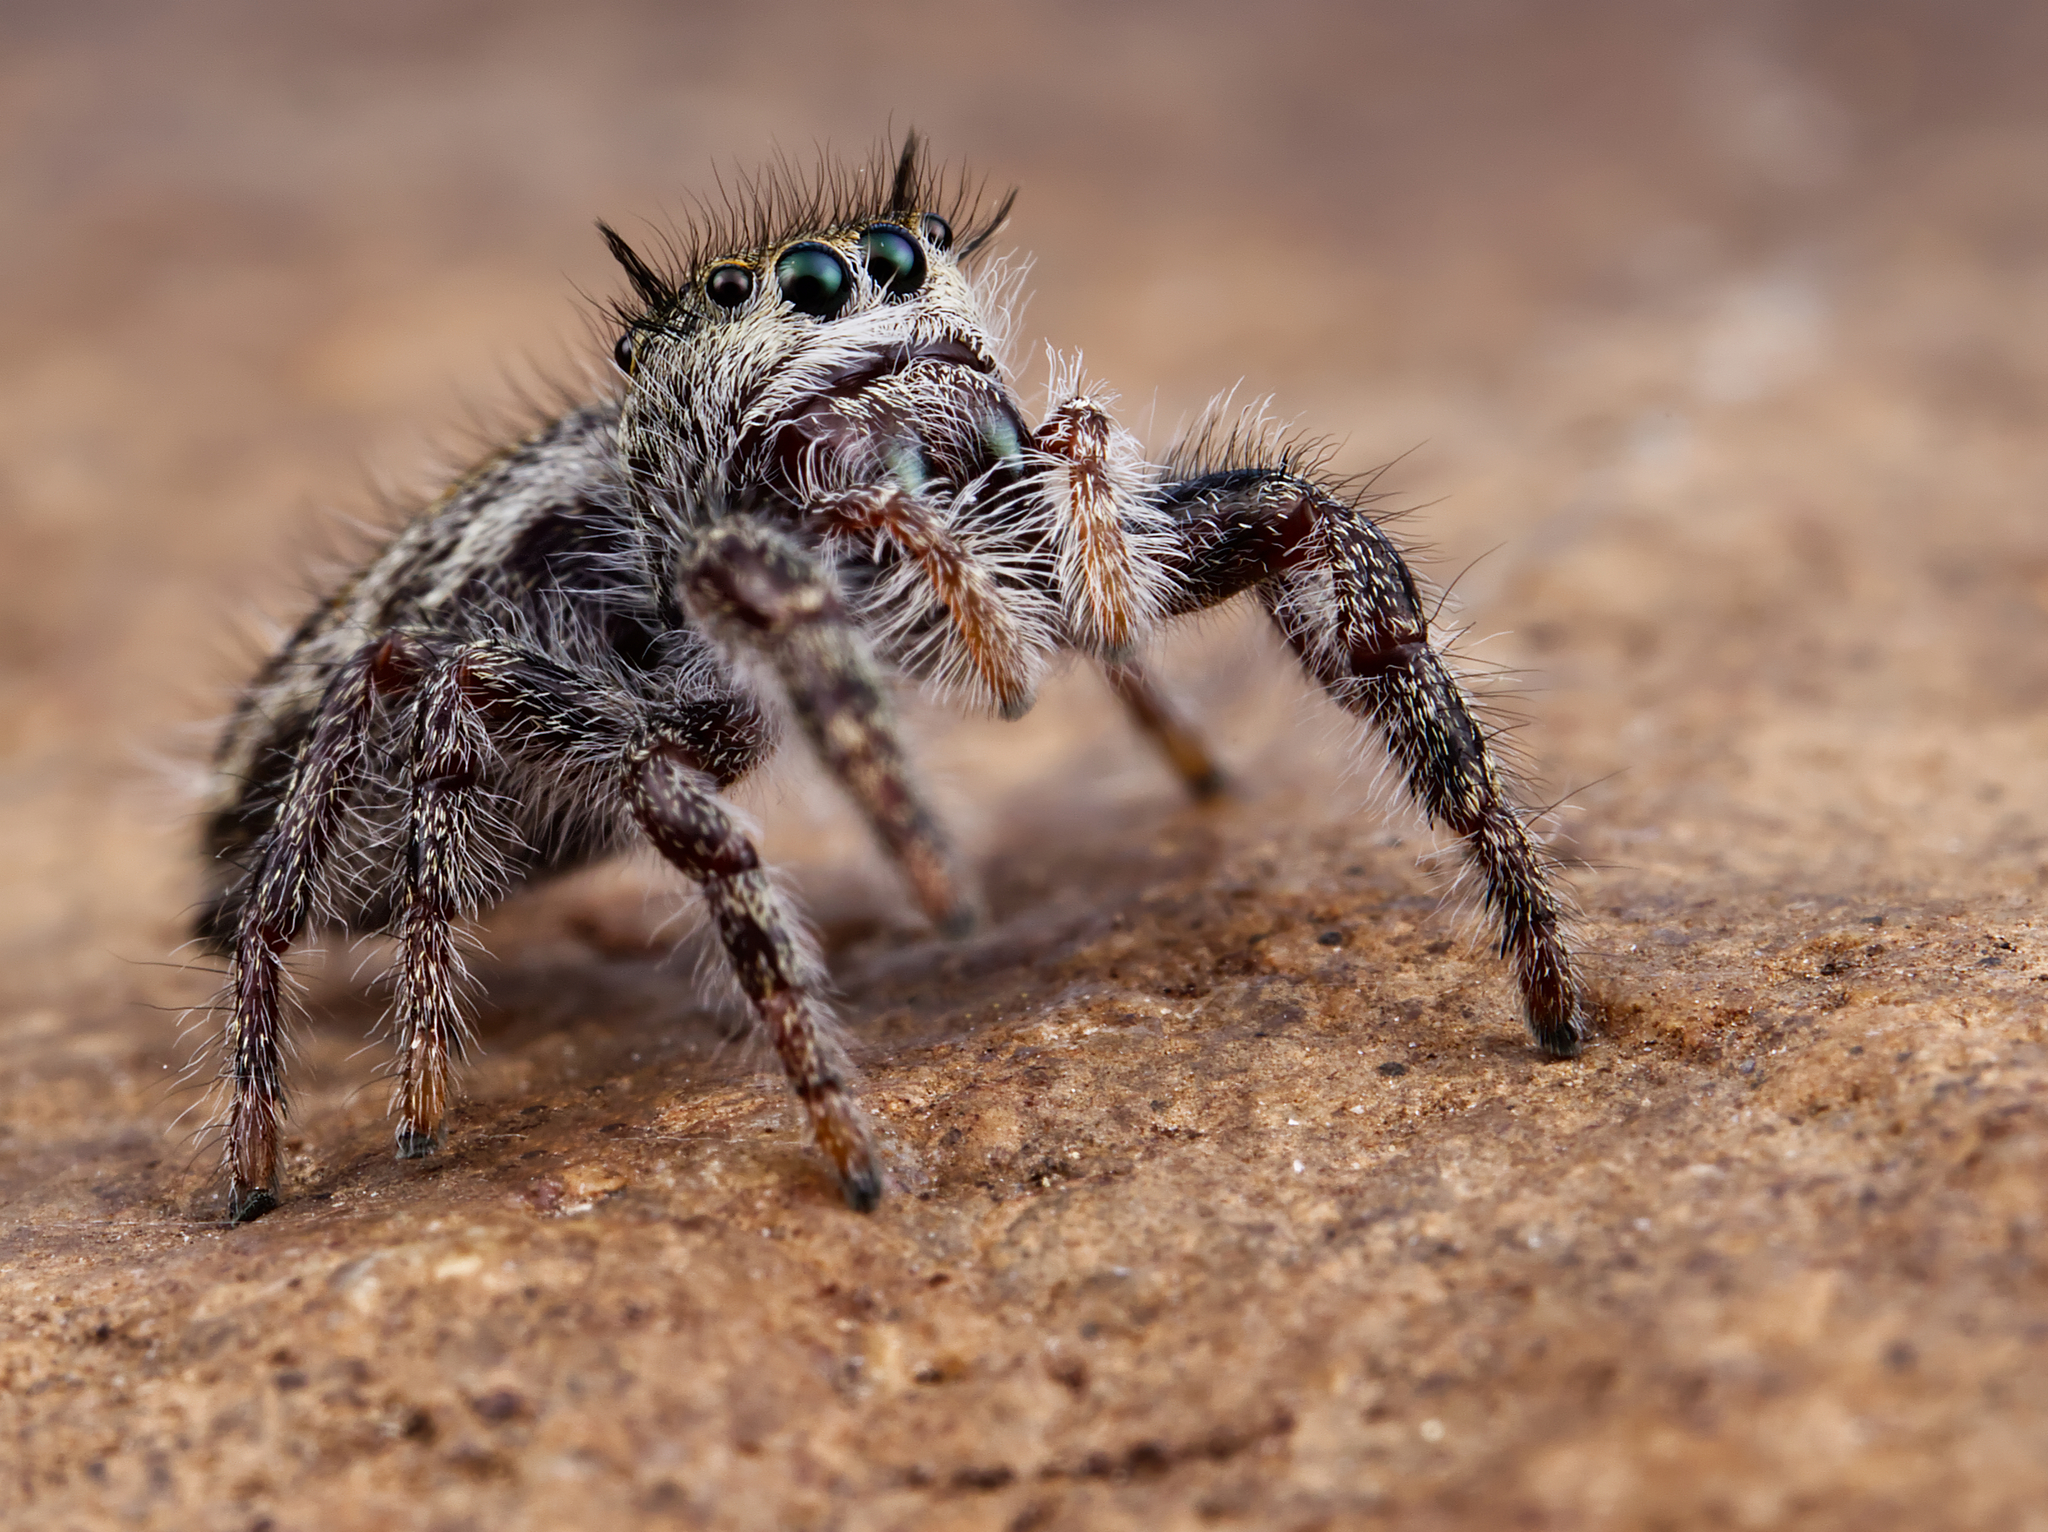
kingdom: Animalia
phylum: Arthropoda
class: Arachnida
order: Araneae
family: Salticidae
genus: Phidippus
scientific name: Phidippus insignarius
